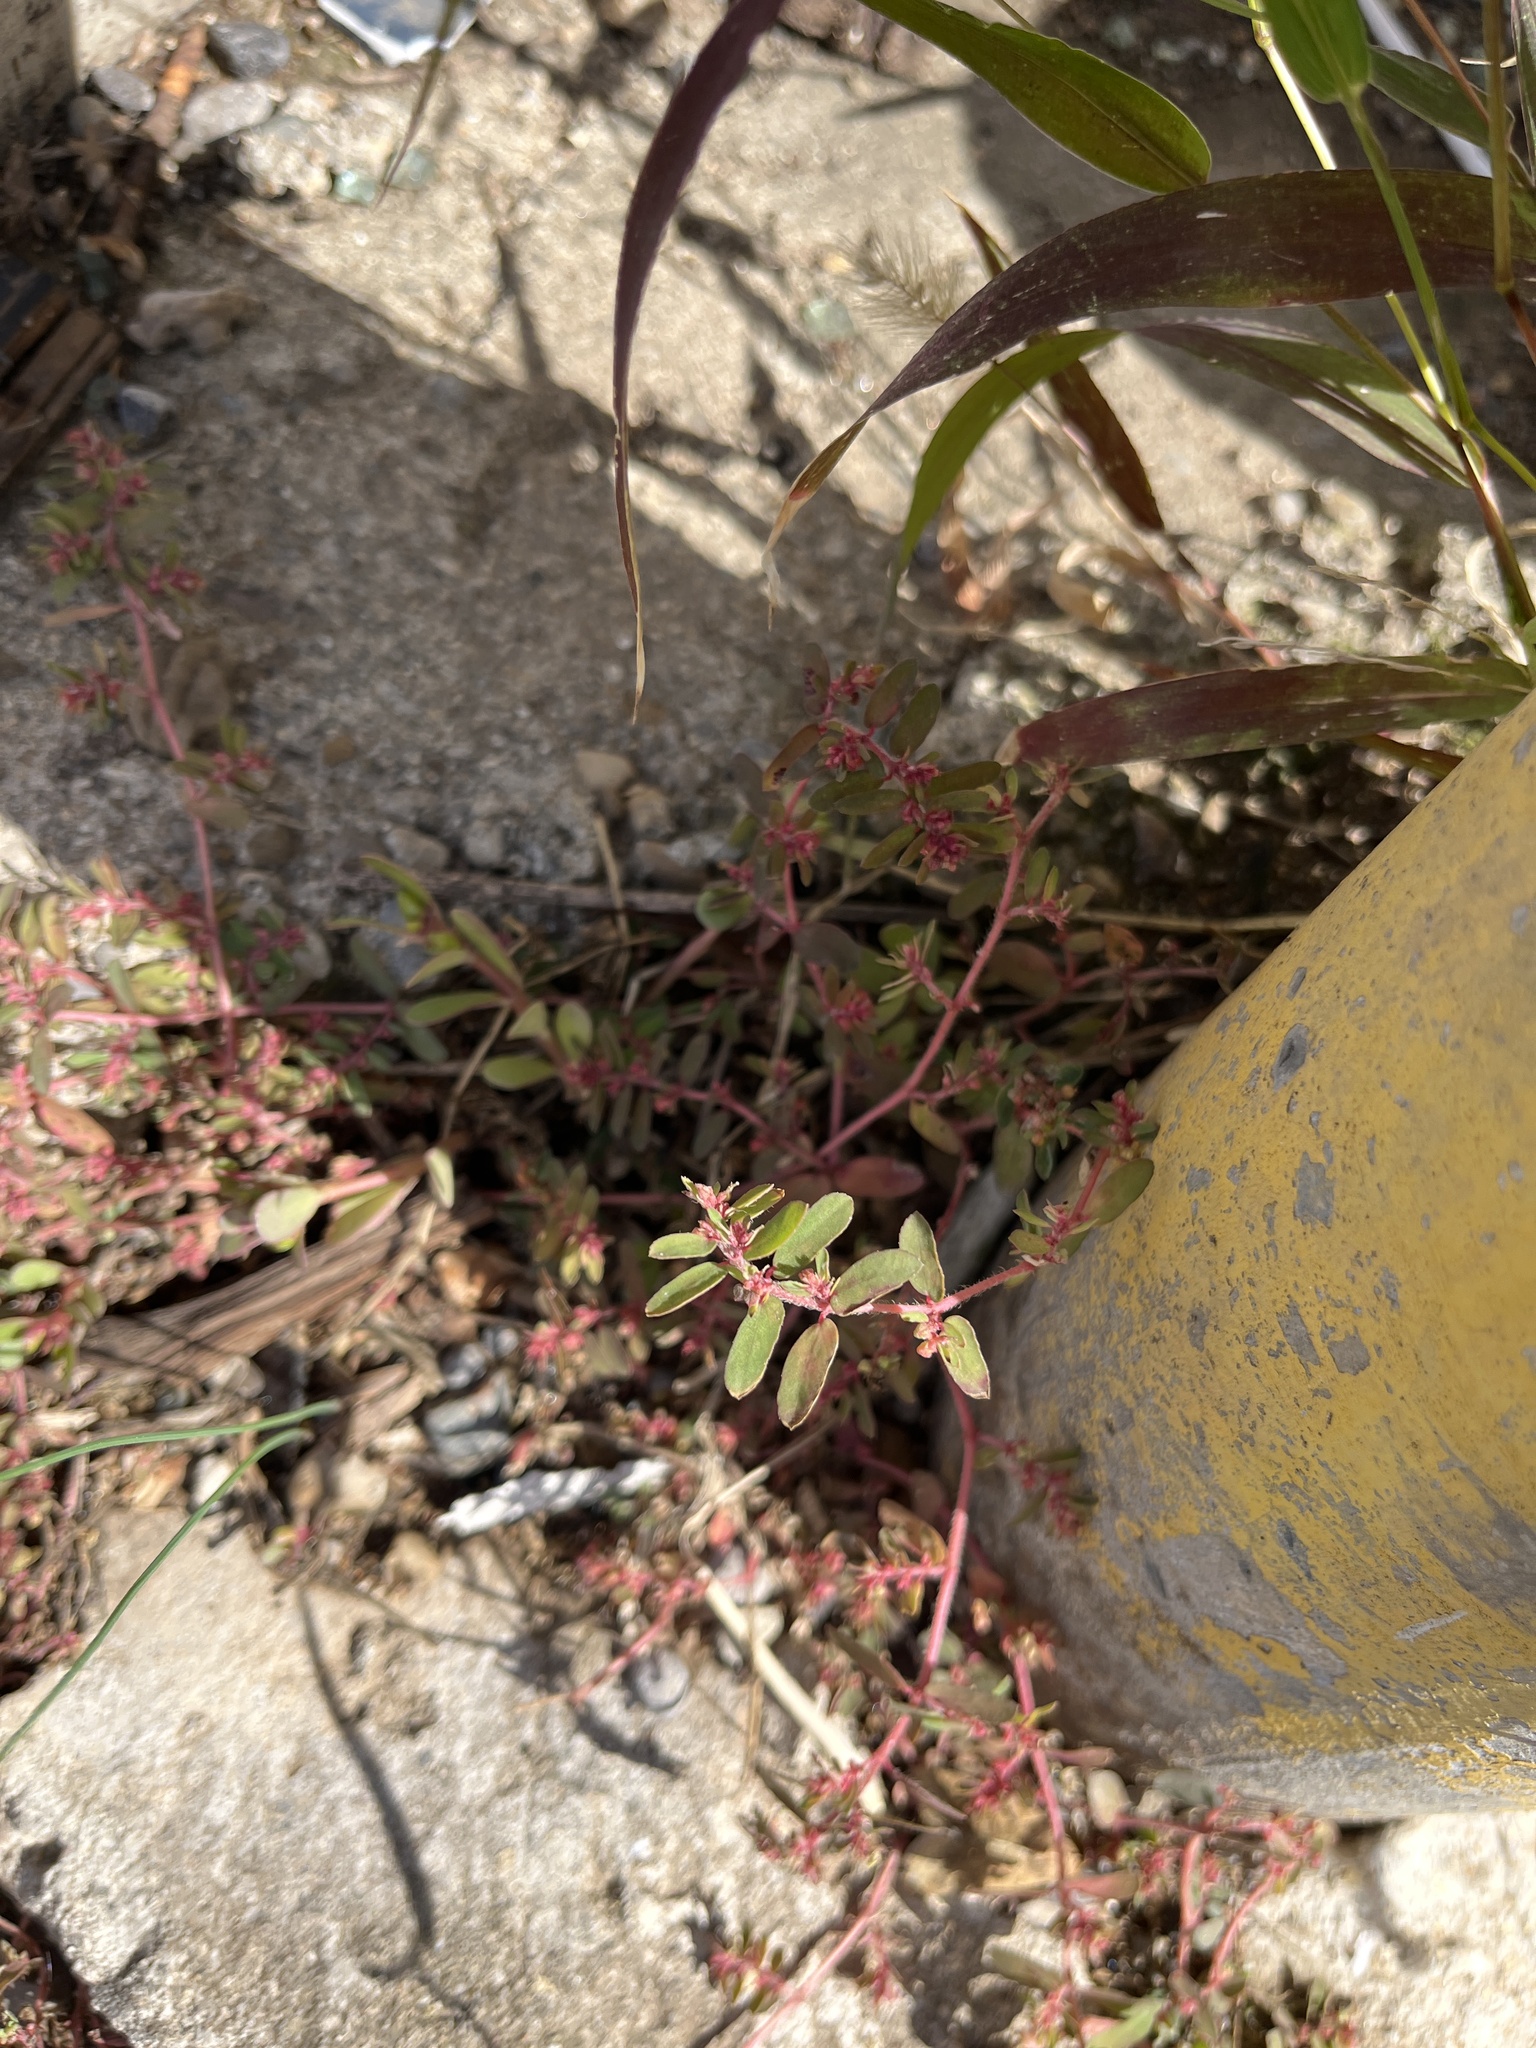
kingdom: Plantae
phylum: Tracheophyta
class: Magnoliopsida
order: Malpighiales
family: Euphorbiaceae
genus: Euphorbia
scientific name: Euphorbia maculata
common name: Spotted spurge
